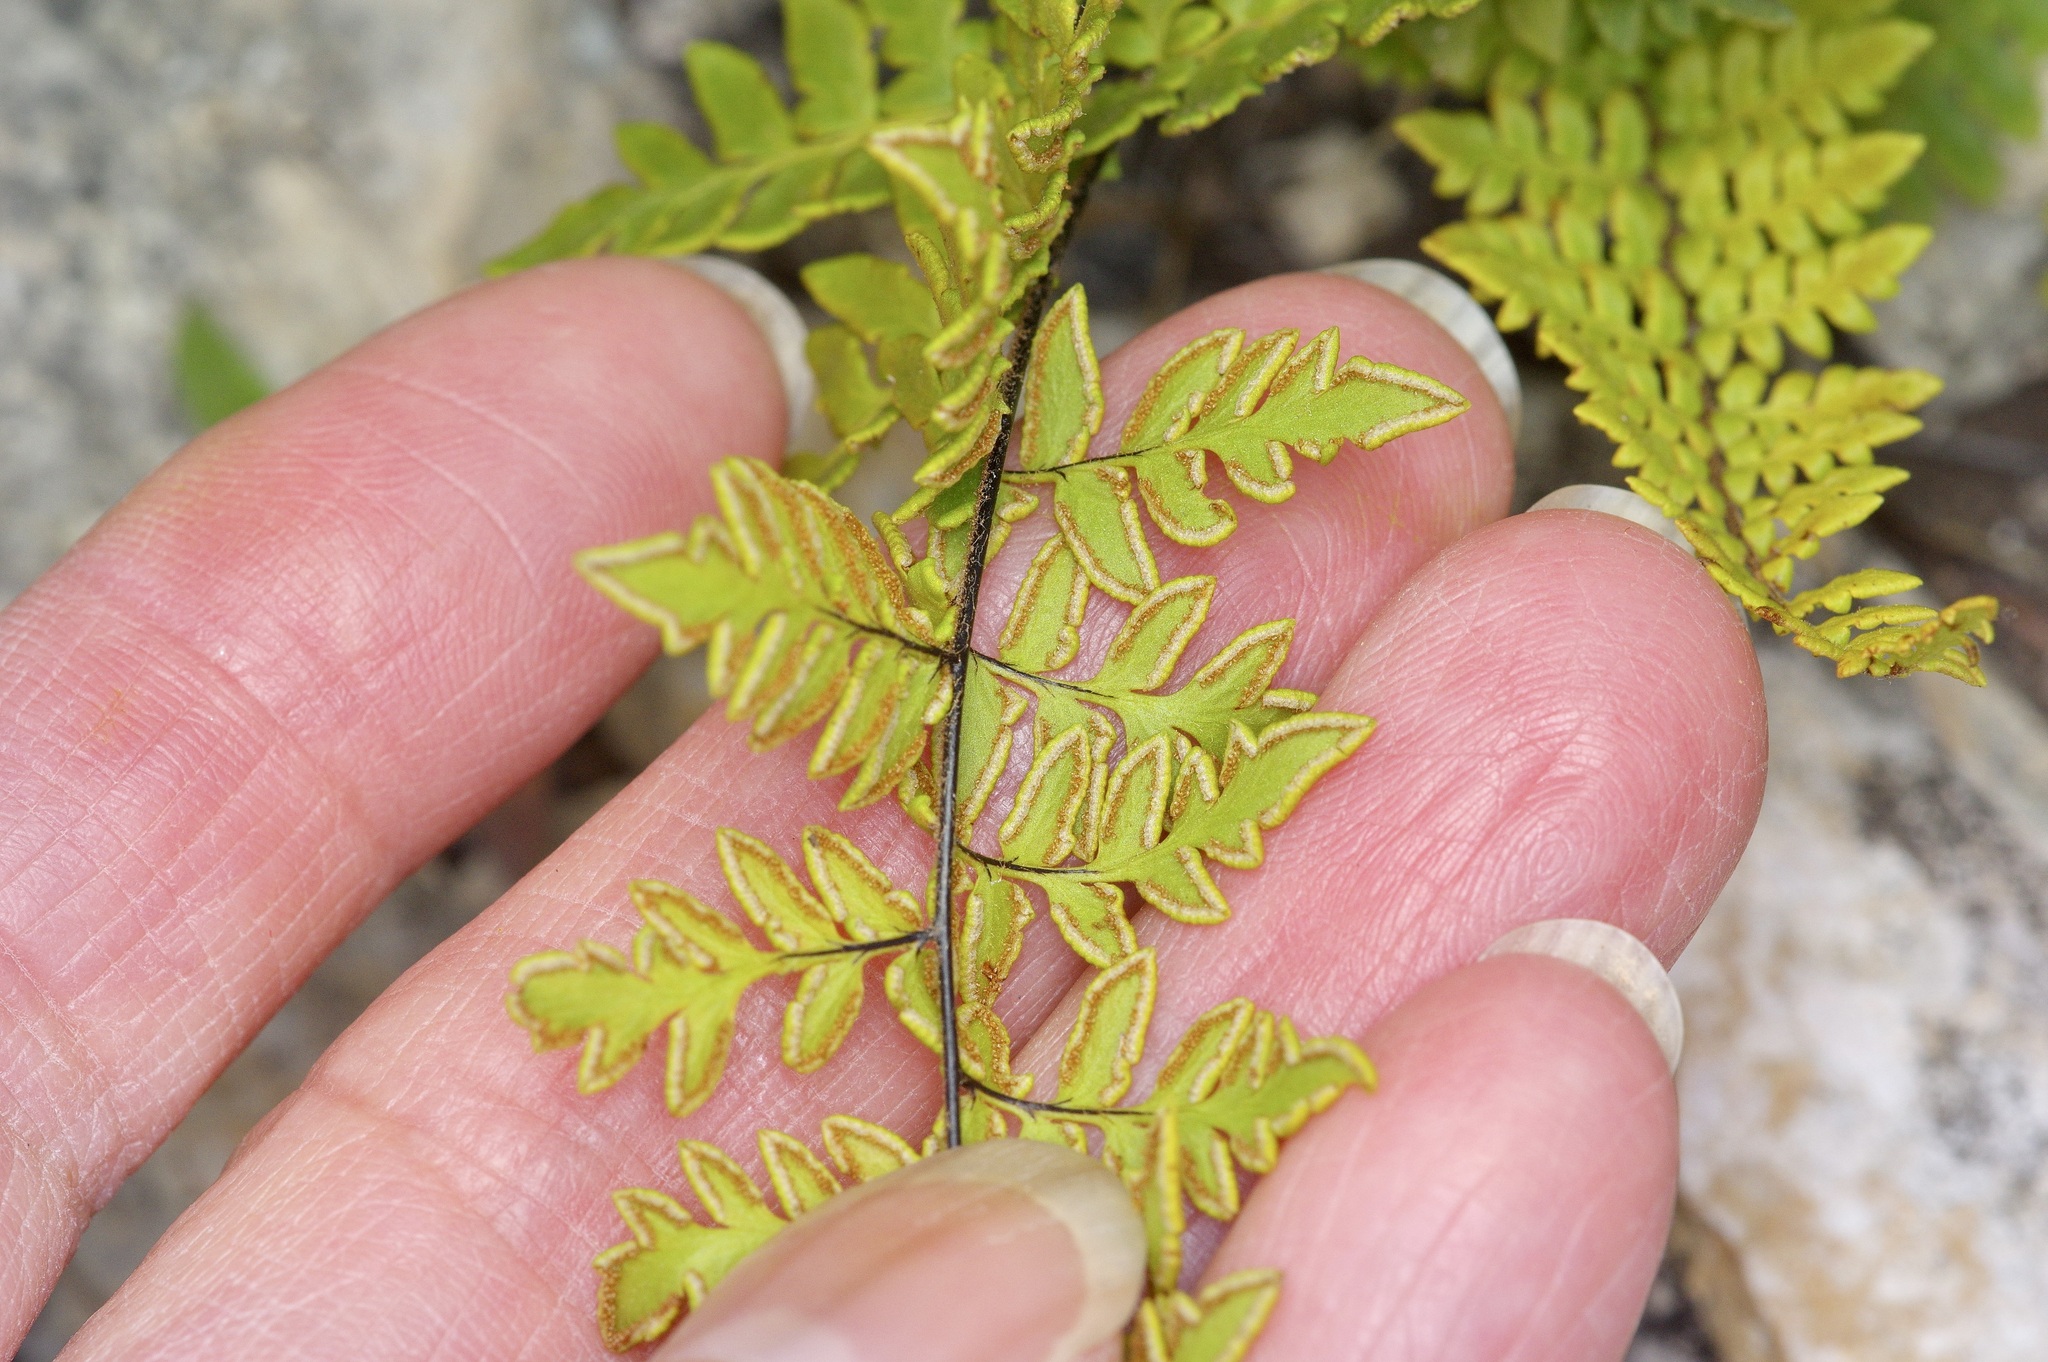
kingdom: Plantae
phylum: Tracheophyta
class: Polypodiopsida
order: Polypodiales
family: Pteridaceae
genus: Myriopteris
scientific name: Myriopteris alabamensis
